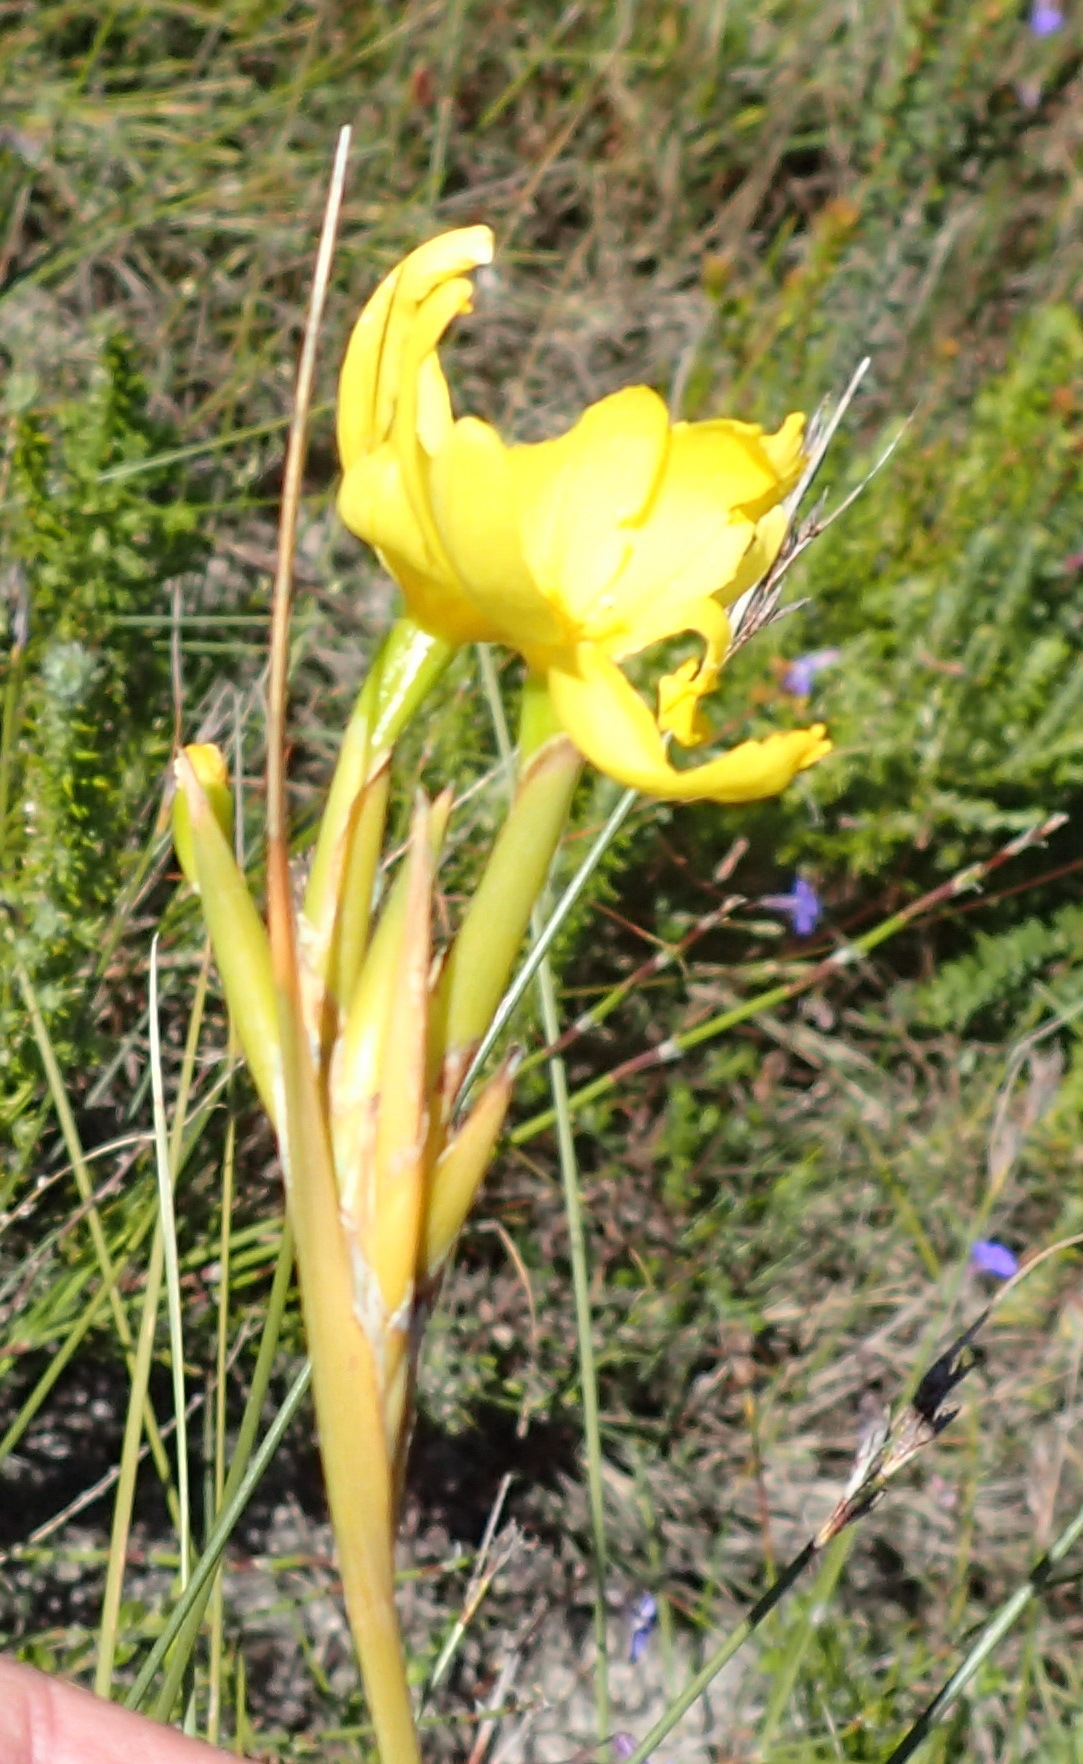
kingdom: Plantae
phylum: Tracheophyta
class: Liliopsida
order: Asparagales
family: Iridaceae
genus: Bobartia
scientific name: Bobartia aphylla
